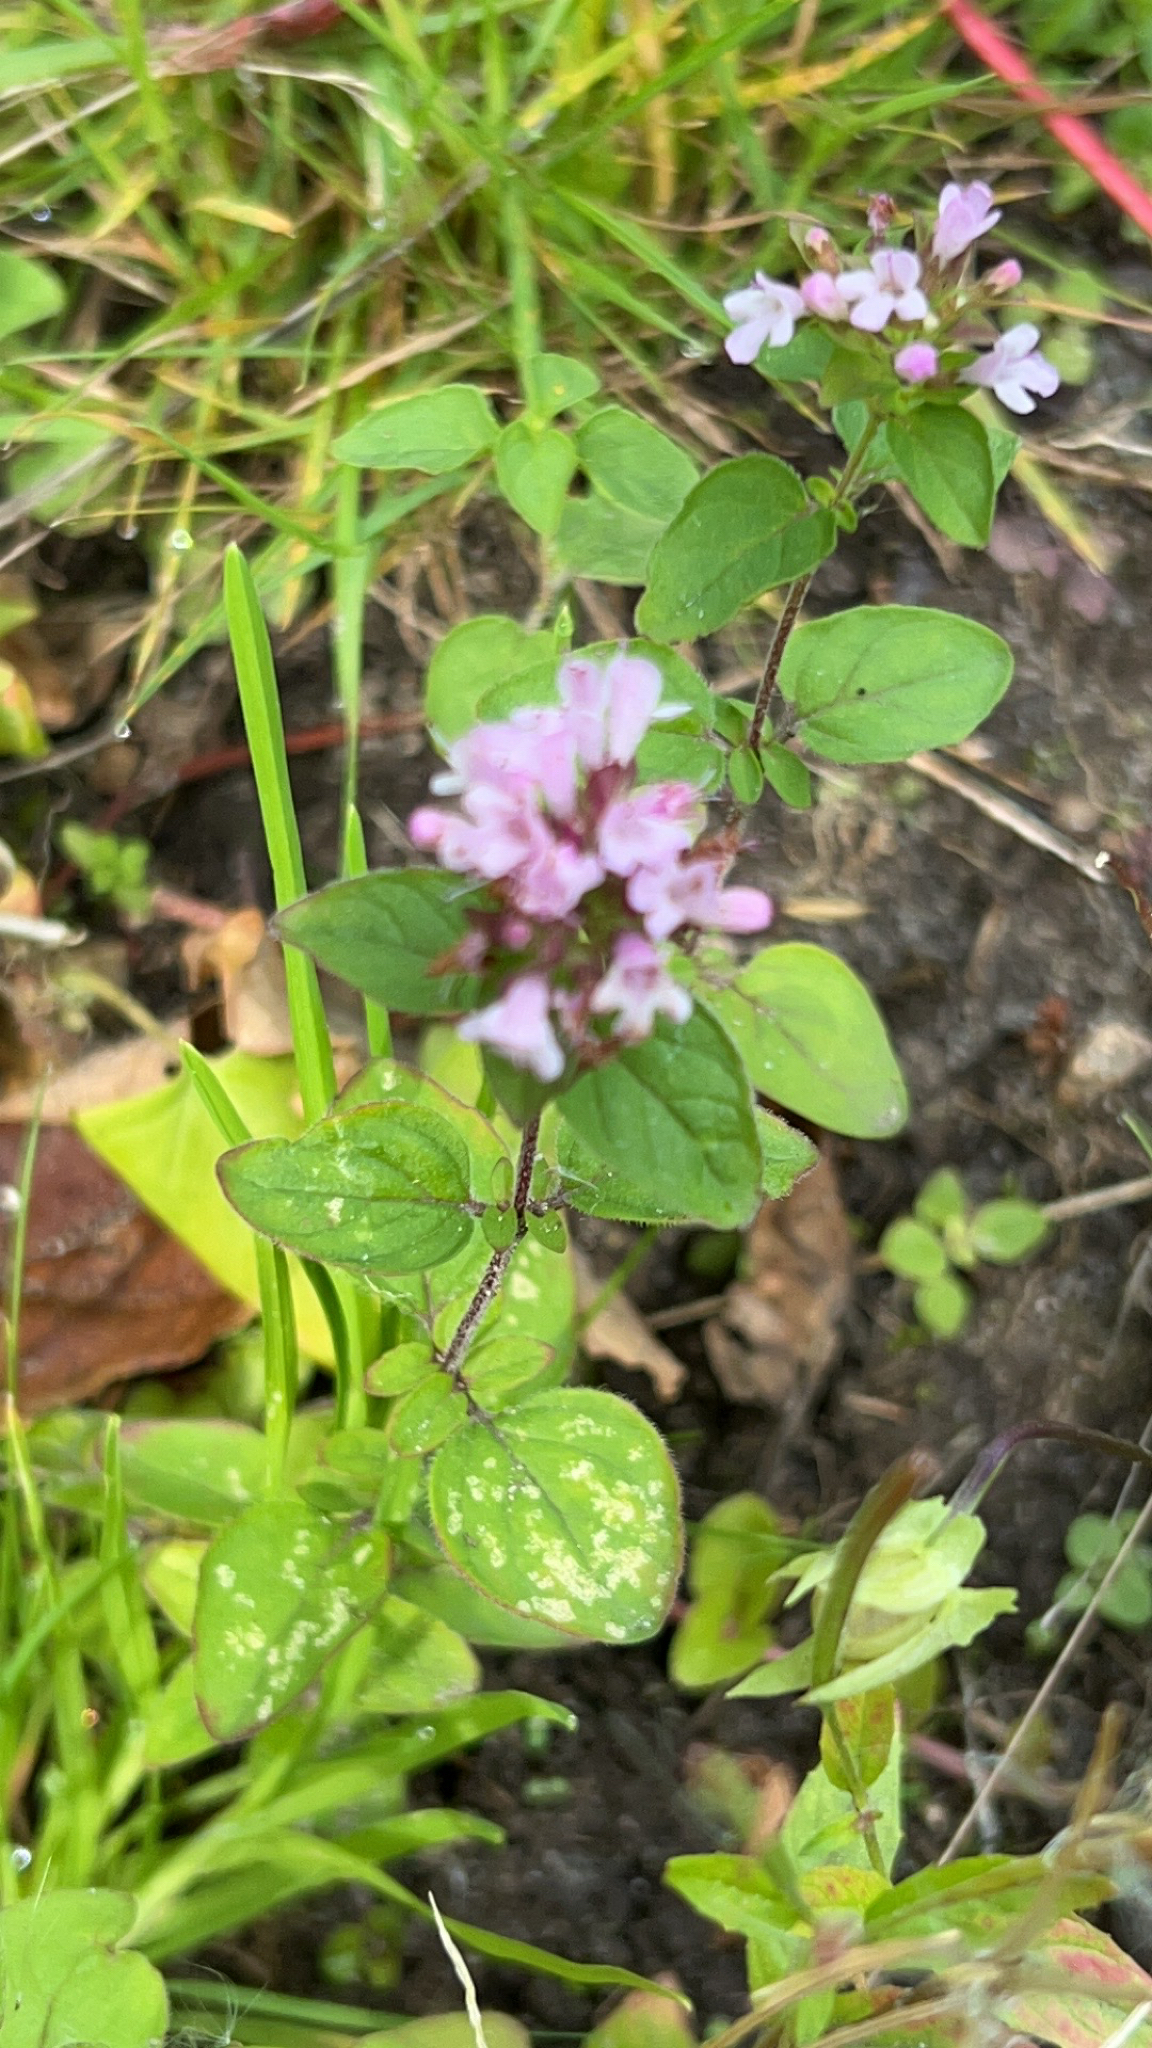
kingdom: Plantae
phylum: Tracheophyta
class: Magnoliopsida
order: Lamiales
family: Lamiaceae
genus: Origanum
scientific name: Origanum vulgare
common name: Wild marjoram
